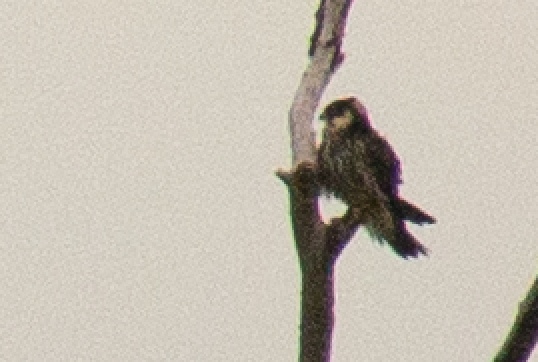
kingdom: Animalia
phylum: Chordata
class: Aves
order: Falconiformes
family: Falconidae
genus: Falco
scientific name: Falco subbuteo
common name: Eurasian hobby
